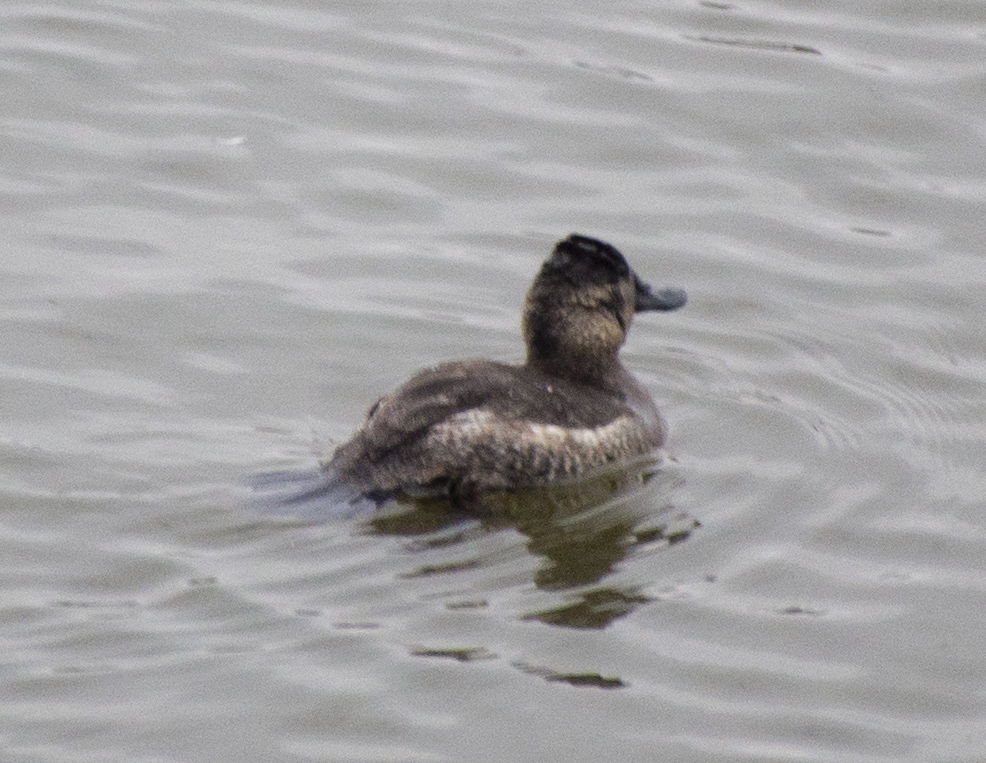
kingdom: Animalia
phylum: Chordata
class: Aves
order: Anseriformes
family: Anatidae
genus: Oxyura
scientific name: Oxyura jamaicensis
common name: Ruddy duck
